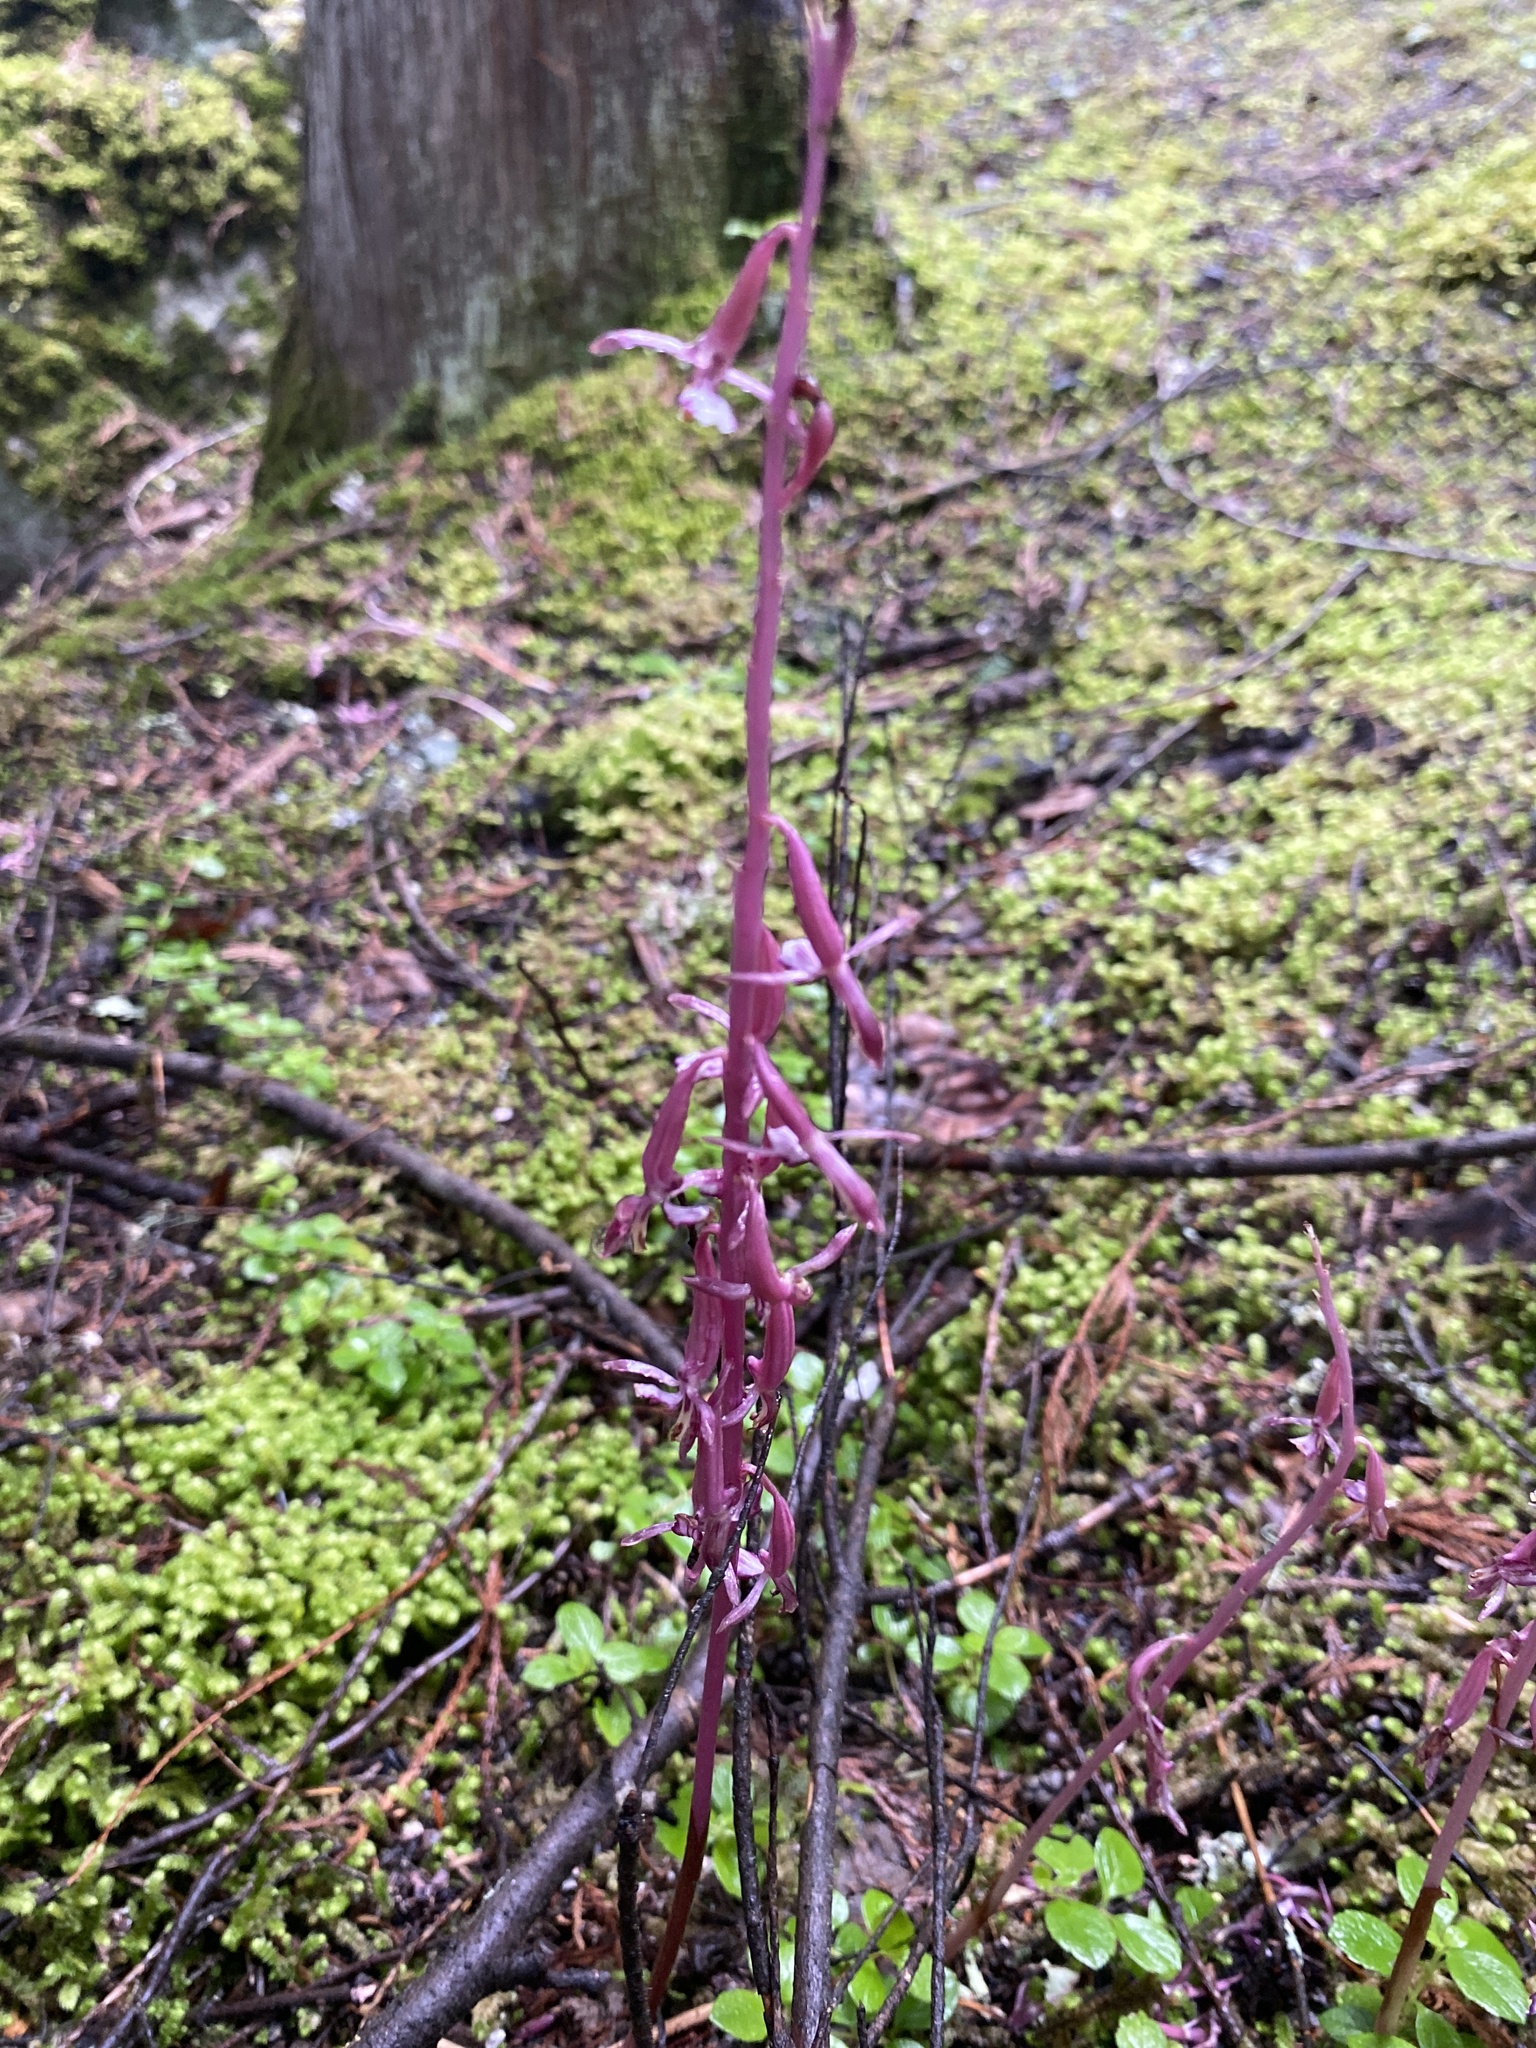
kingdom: Plantae
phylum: Tracheophyta
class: Liliopsida
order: Asparagales
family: Orchidaceae
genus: Corallorhiza
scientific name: Corallorhiza mertensiana
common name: Pacific coralroot
